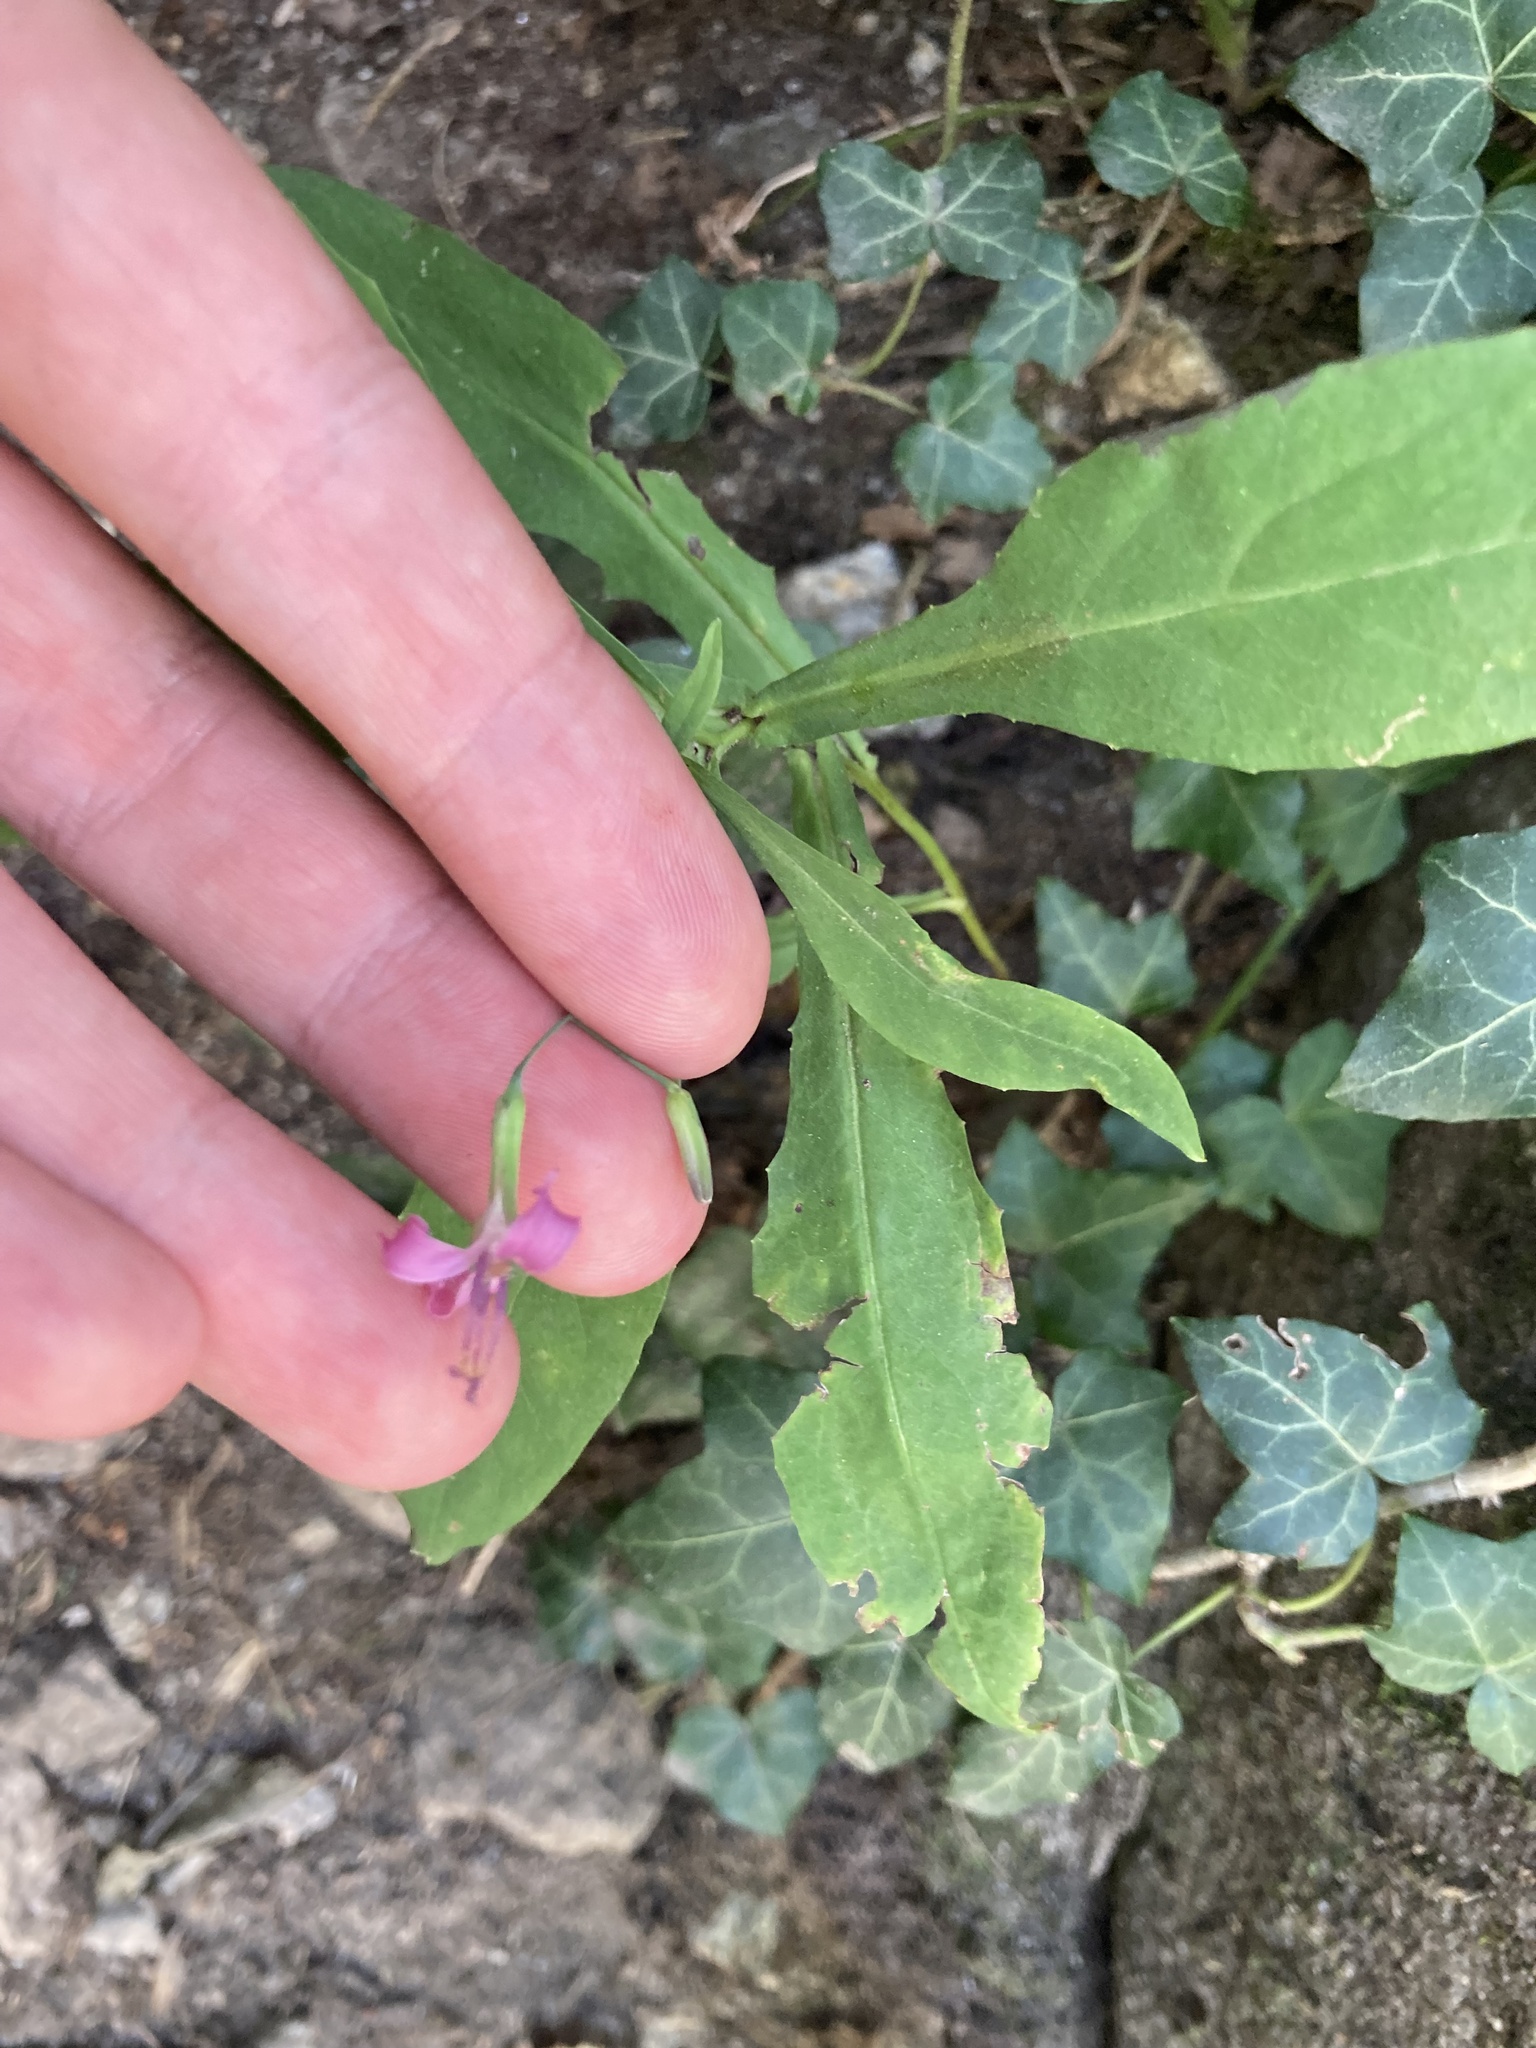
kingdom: Plantae
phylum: Tracheophyta
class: Magnoliopsida
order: Asterales
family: Asteraceae
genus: Prenanthes
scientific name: Prenanthes purpurea
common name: Purple lettuce
